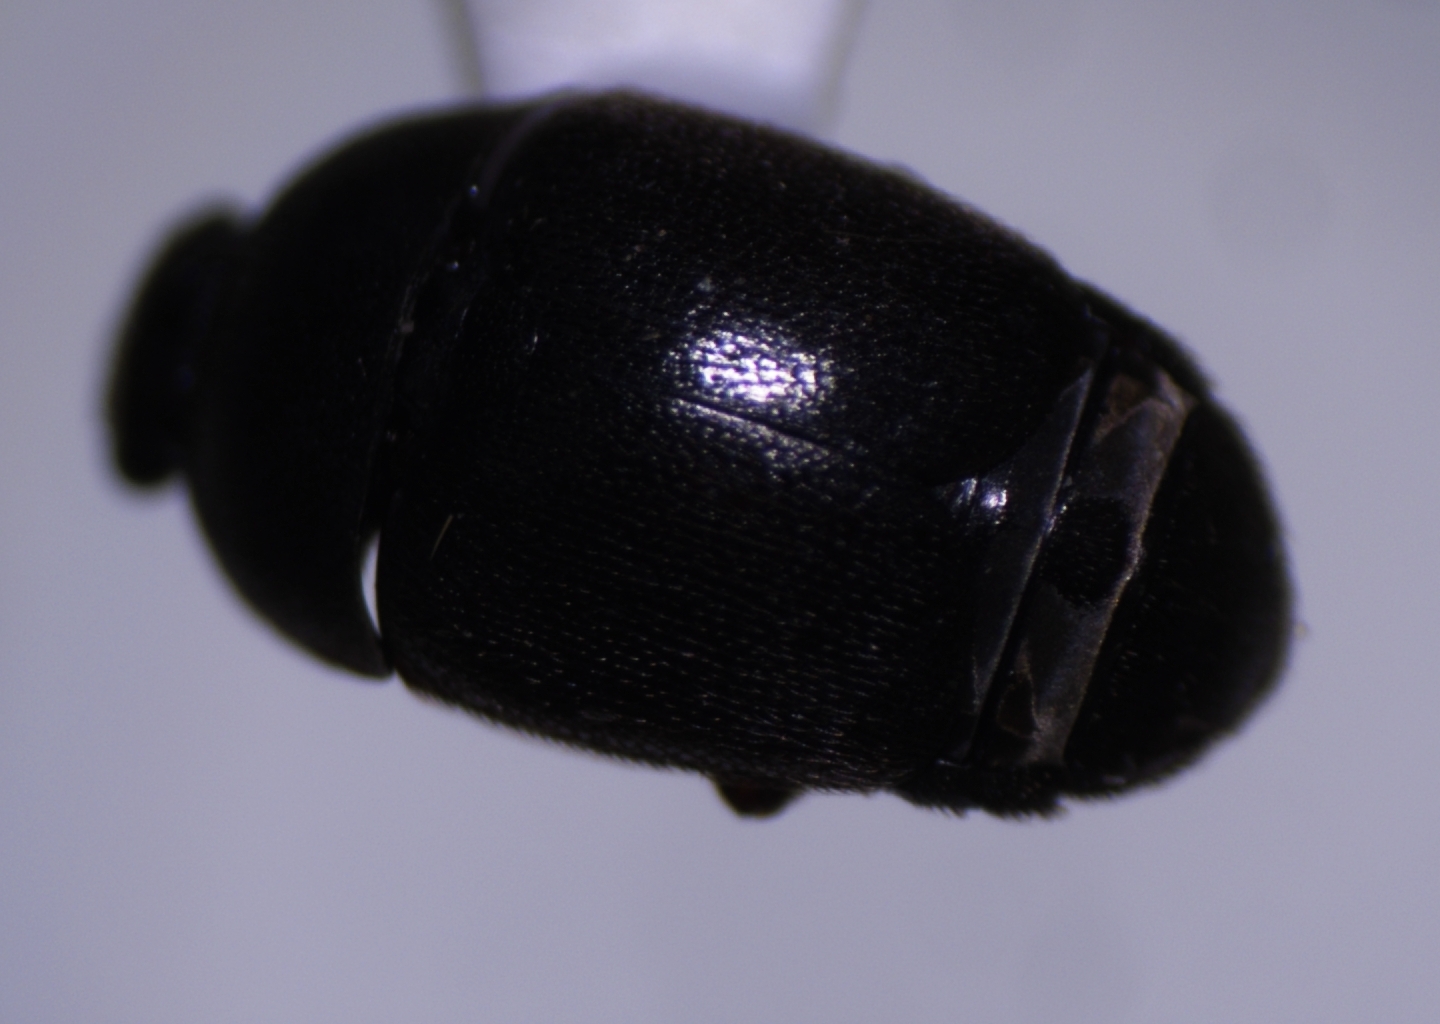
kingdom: Animalia
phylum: Arthropoda
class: Insecta
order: Coleoptera
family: Nitidulidae
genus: Aethina
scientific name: Aethina concolor
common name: Sap beetle
